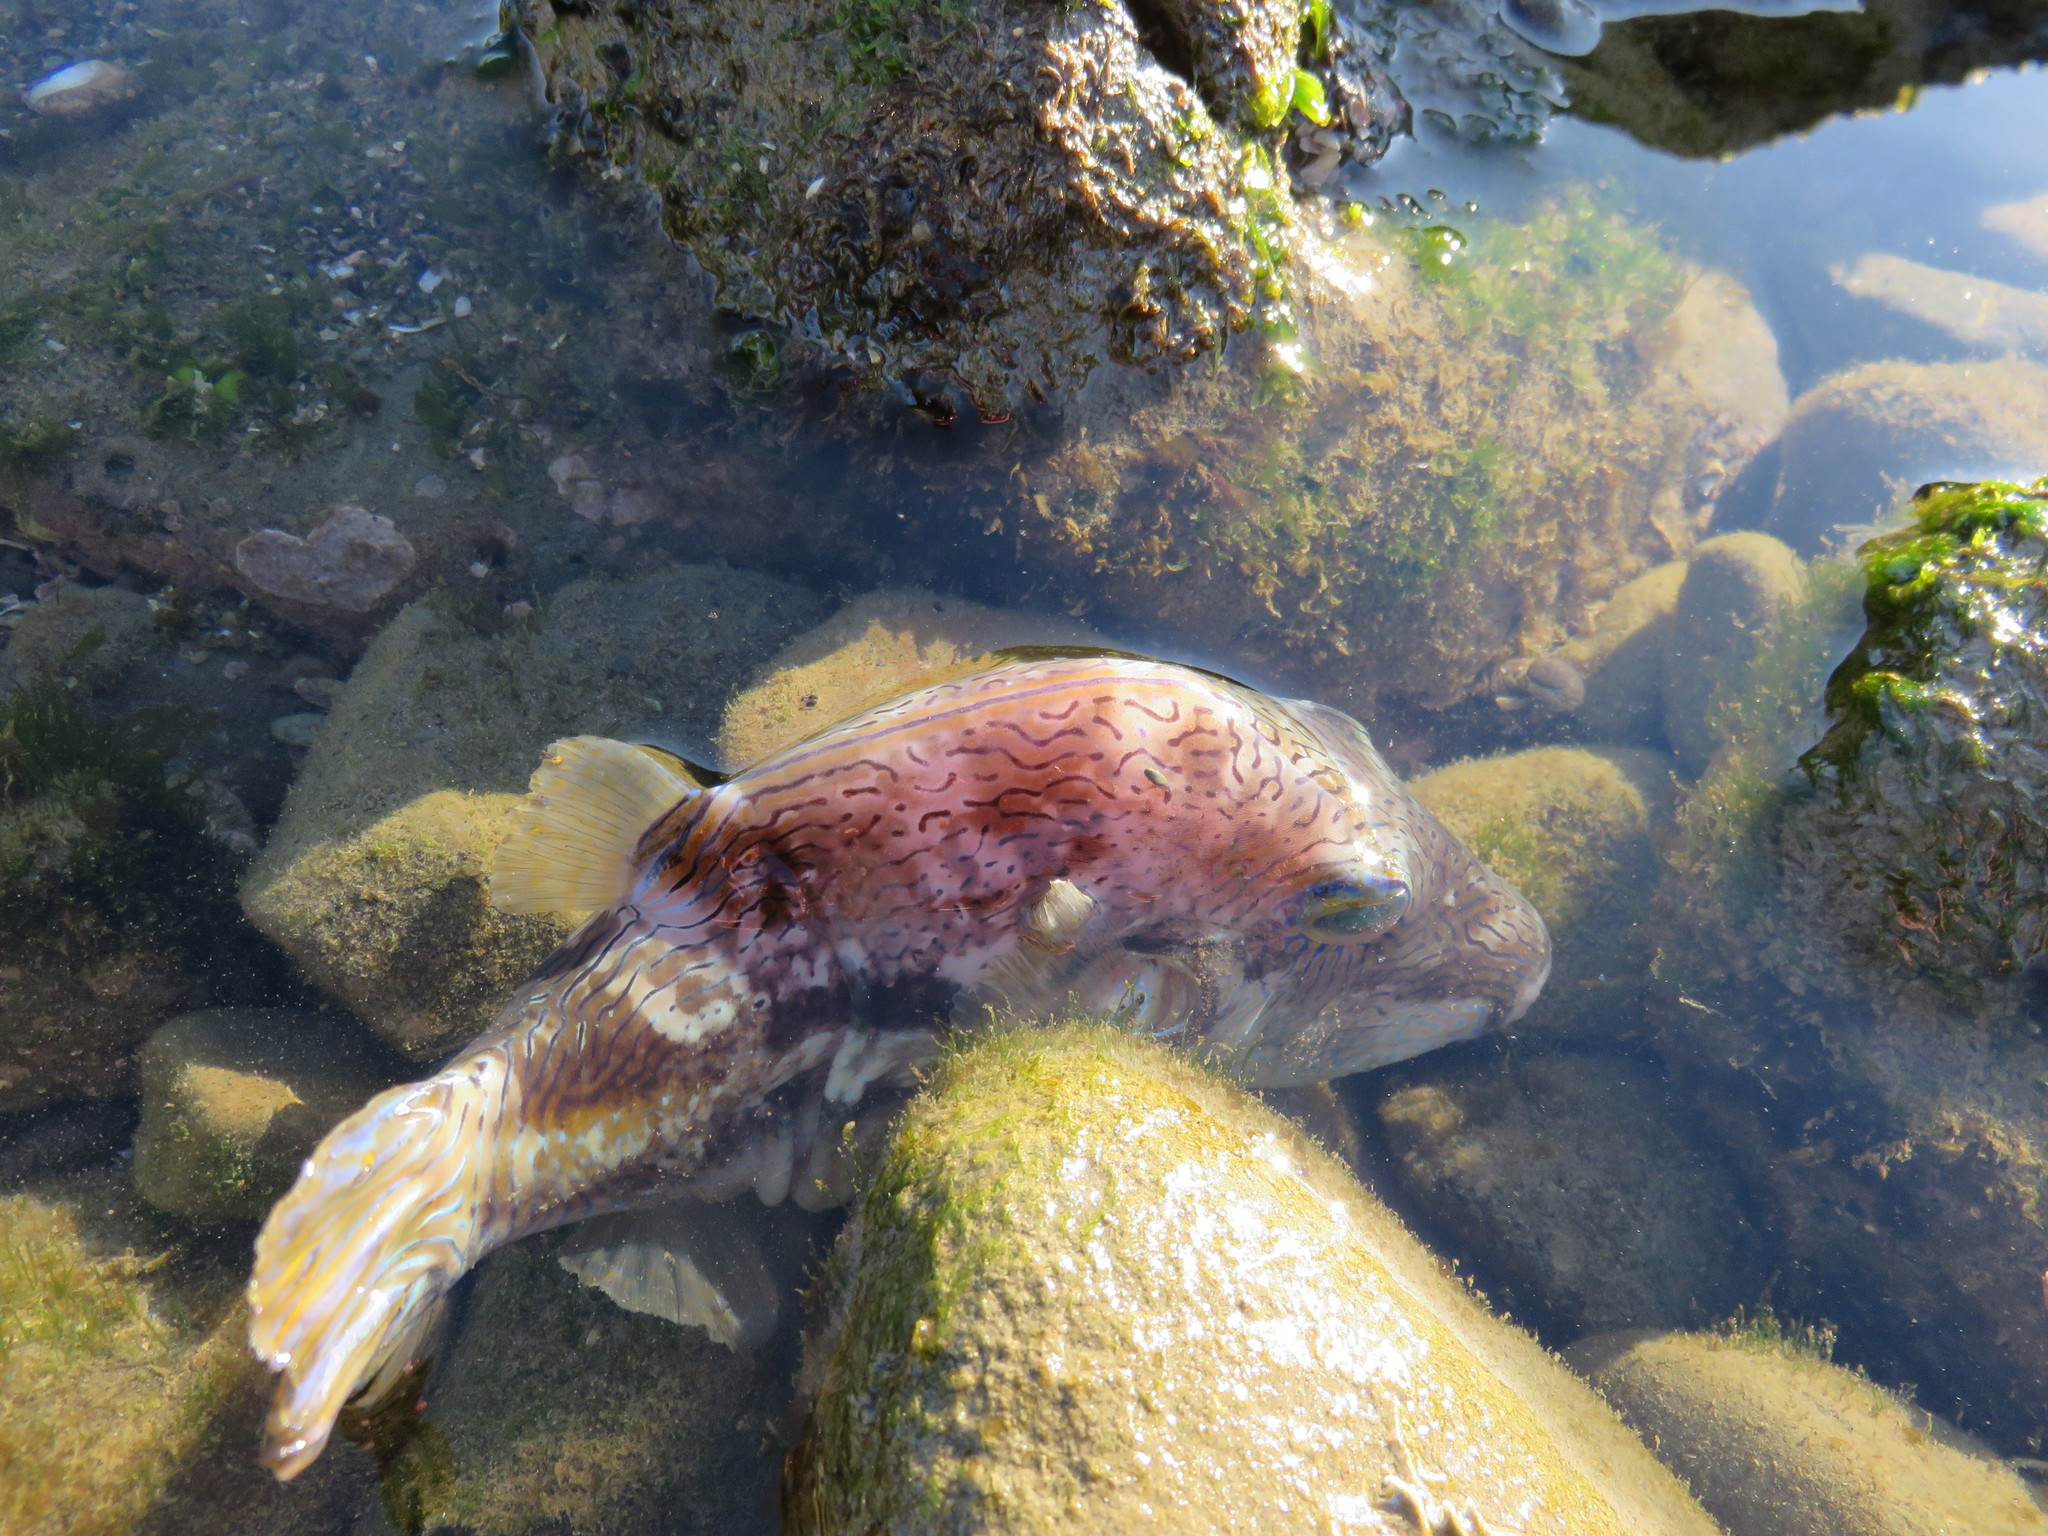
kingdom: Animalia
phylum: Chordata
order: Tetraodontiformes
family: Tetraodontidae
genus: Canthigaster
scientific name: Canthigaster rivulata
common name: Brown-lined puffer
